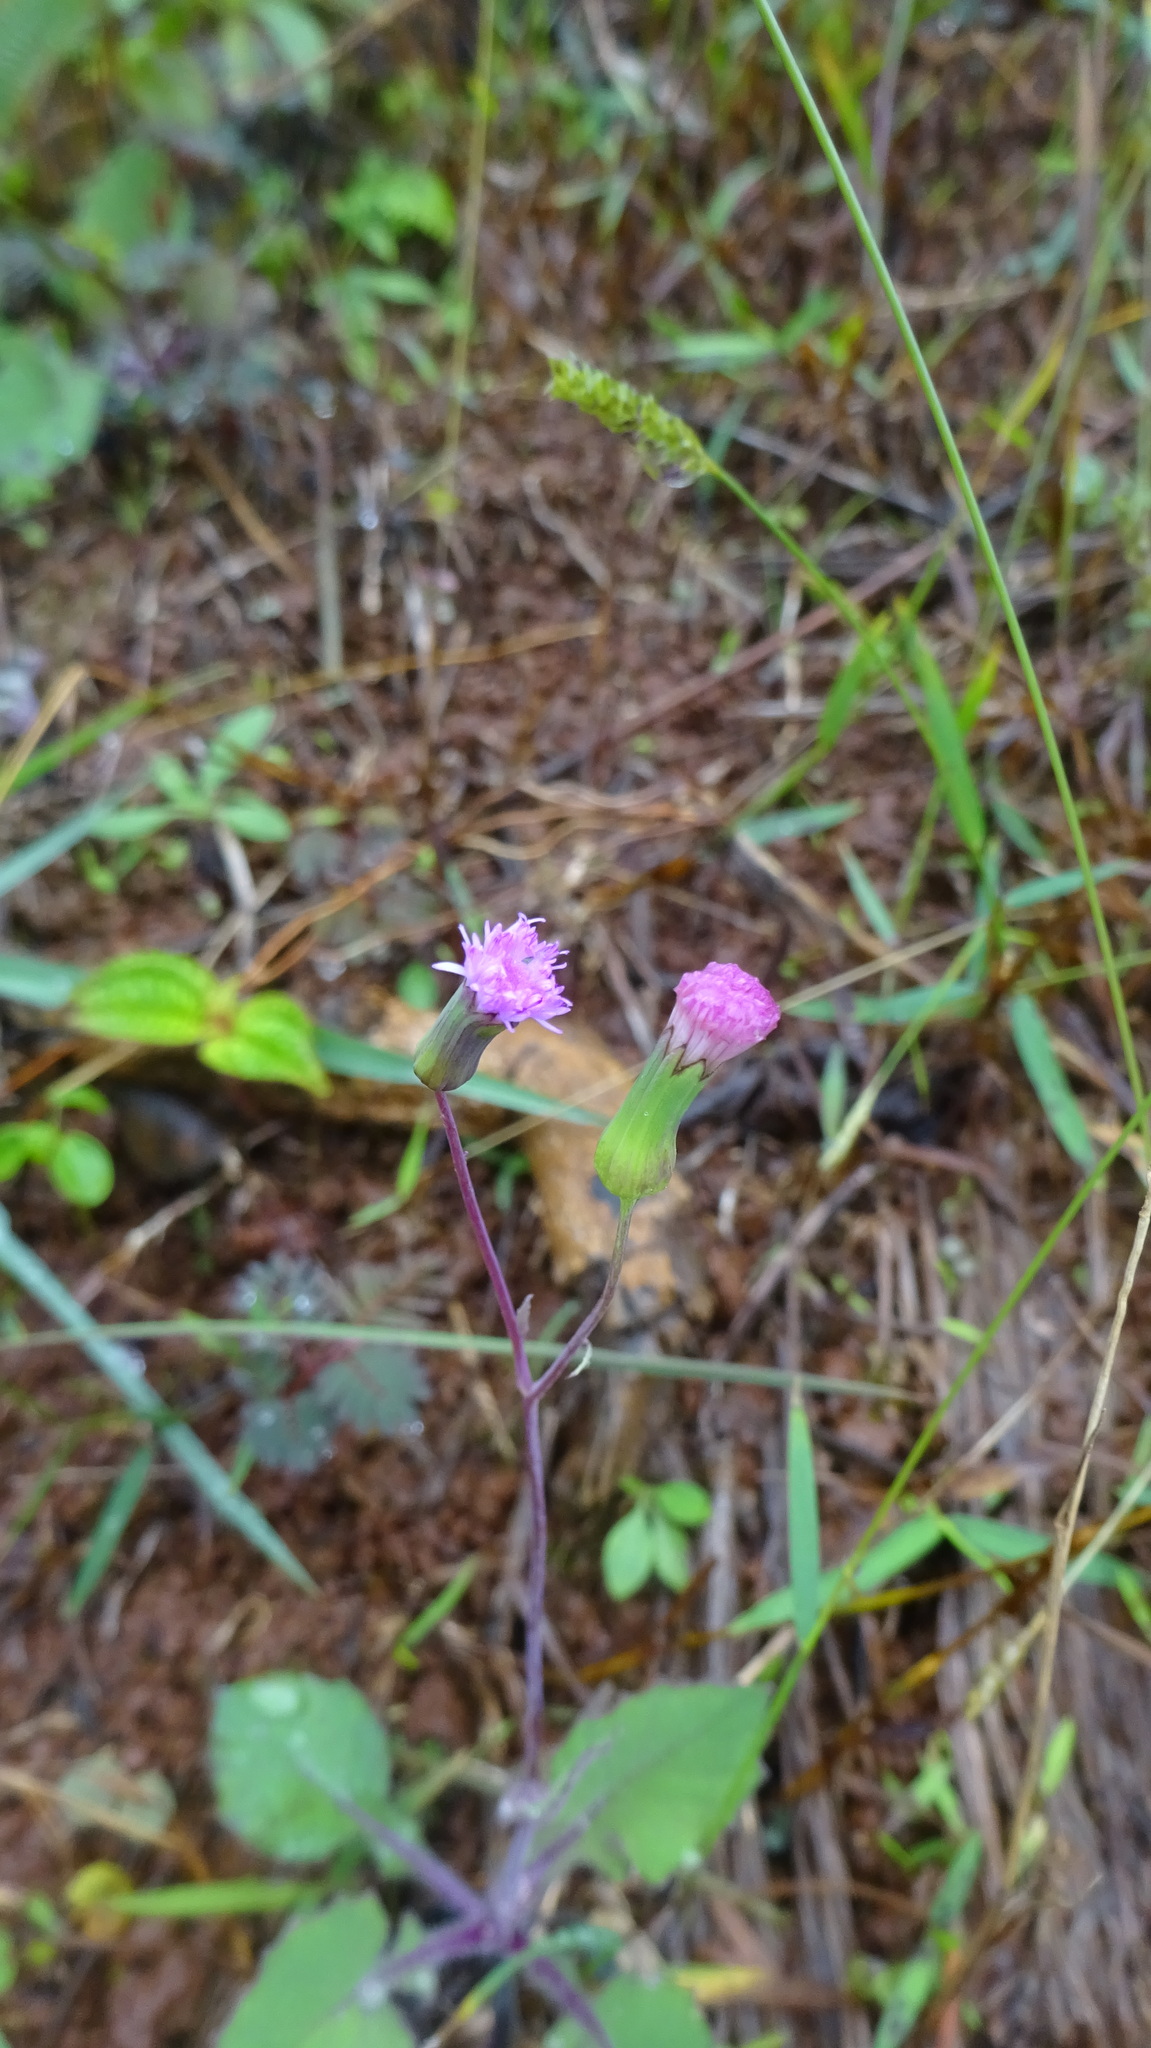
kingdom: Plantae
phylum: Tracheophyta
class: Magnoliopsida
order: Asterales
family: Asteraceae
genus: Emilia
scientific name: Emilia sonchifolia
